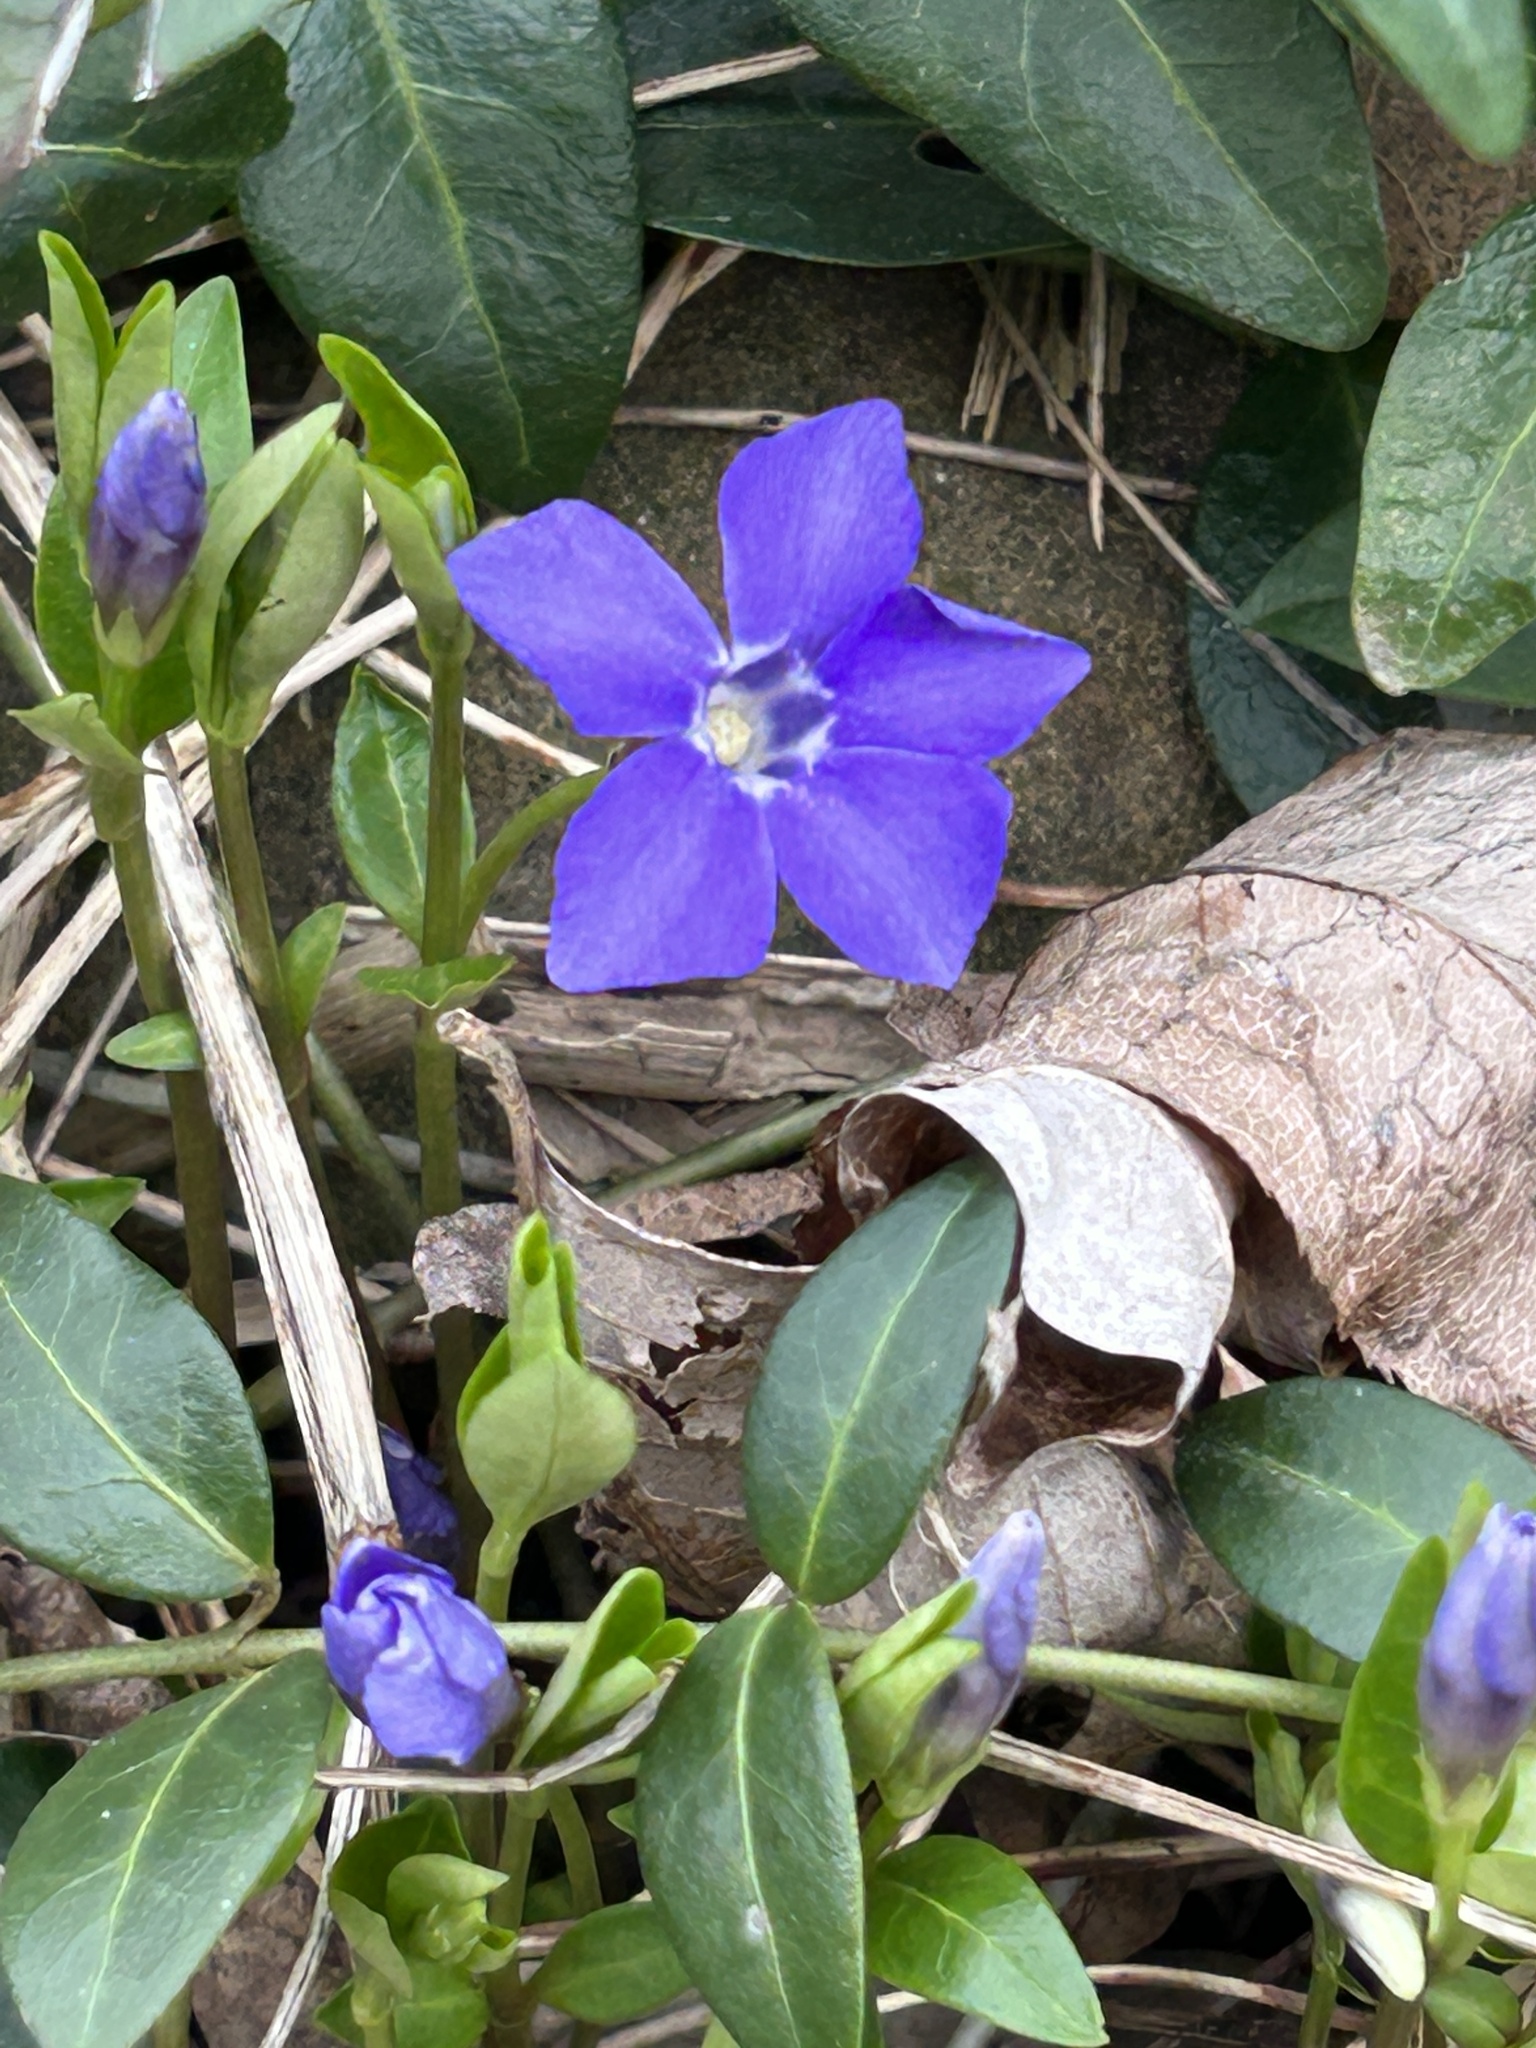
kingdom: Plantae
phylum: Tracheophyta
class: Magnoliopsida
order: Gentianales
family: Apocynaceae
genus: Vinca
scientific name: Vinca minor
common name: Lesser periwinkle
